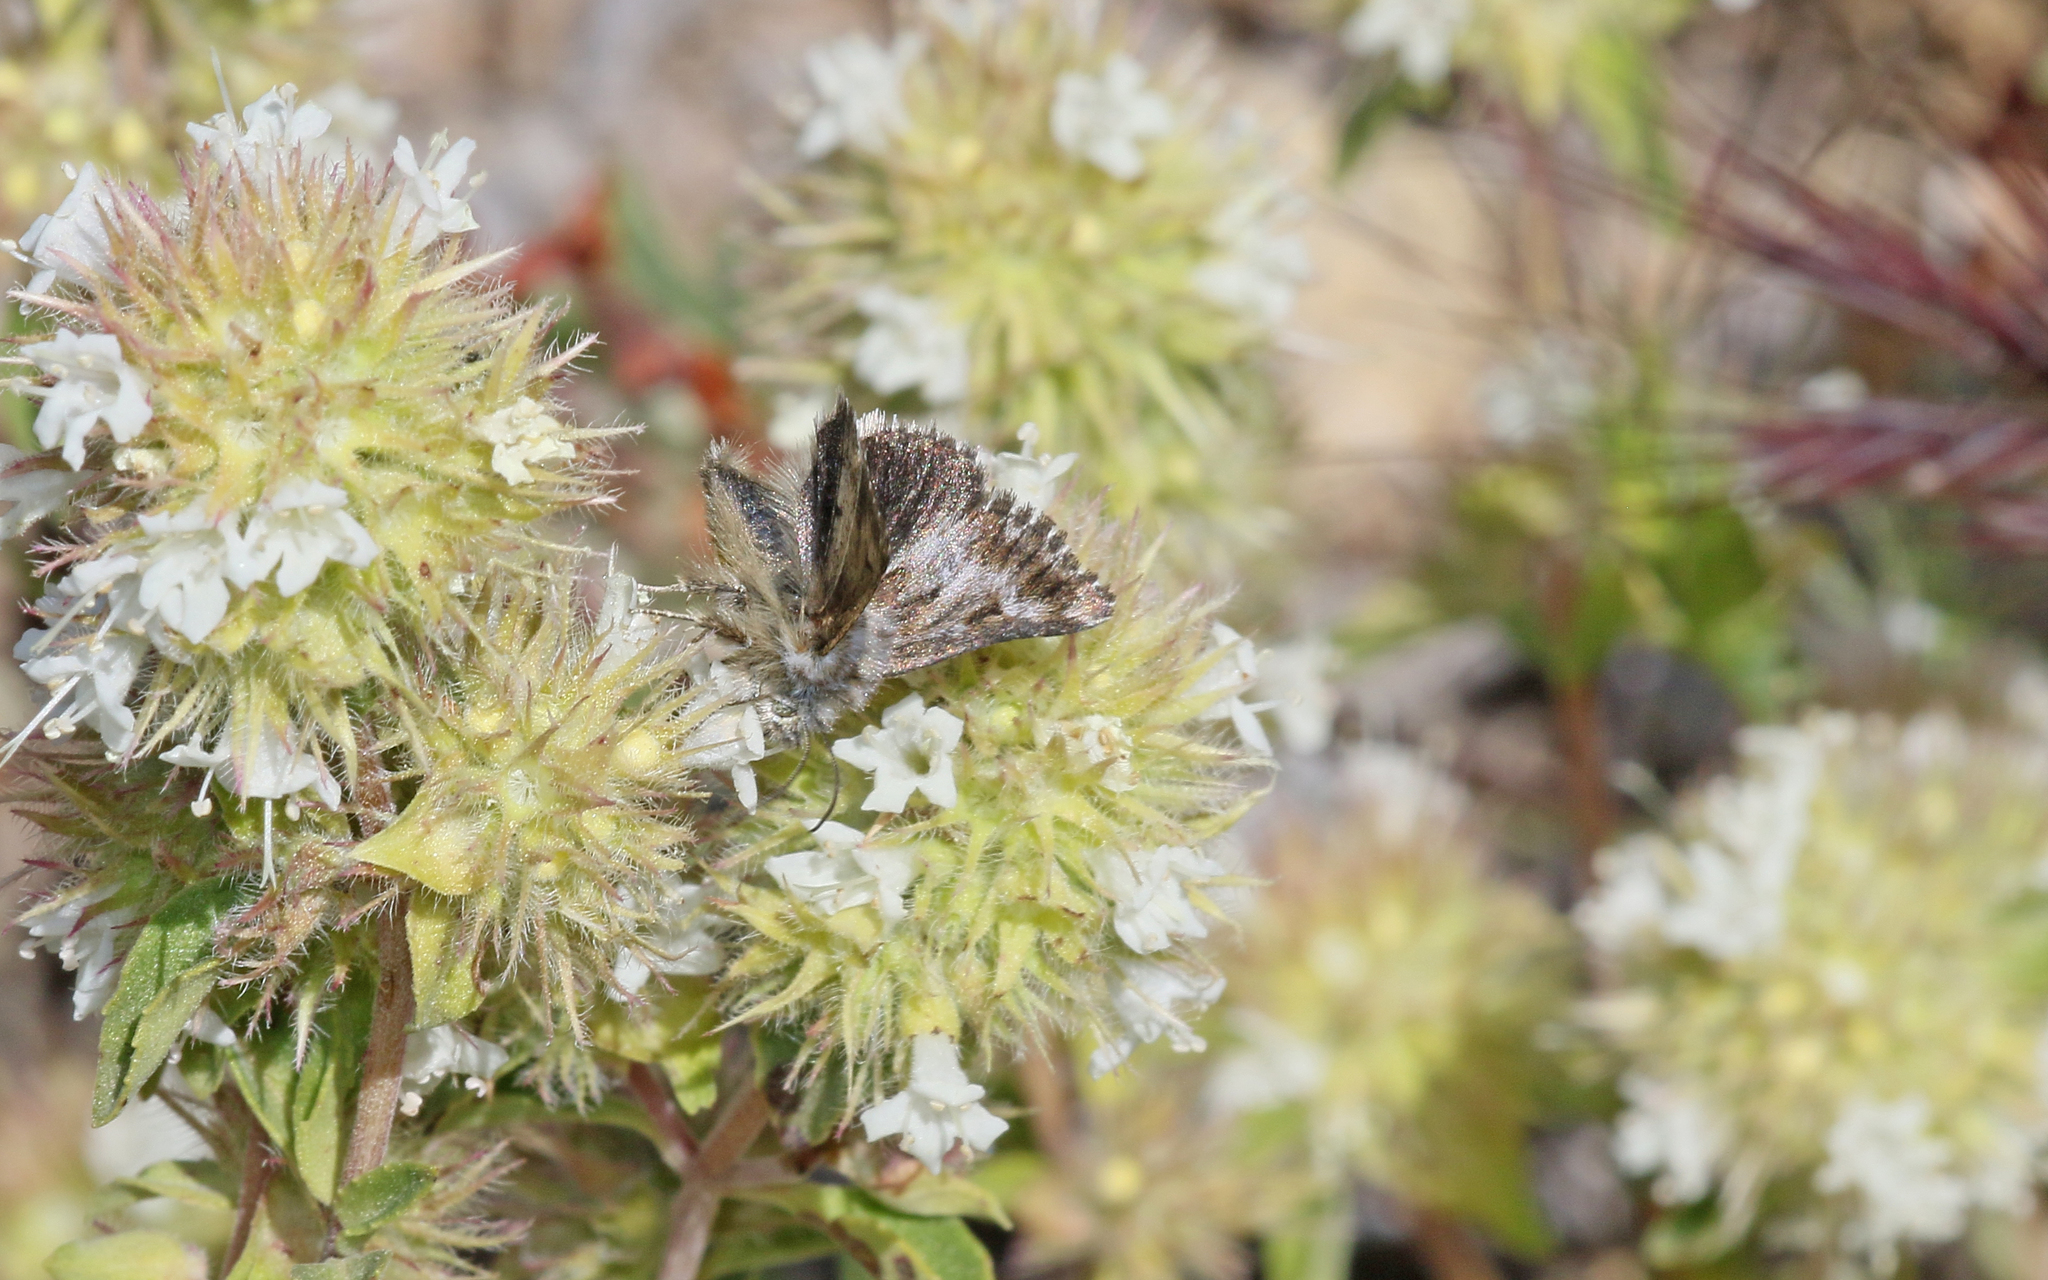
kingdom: Animalia
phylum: Arthropoda
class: Insecta
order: Lepidoptera
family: Noctuidae
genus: Omia
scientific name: Omia cymbalariae
